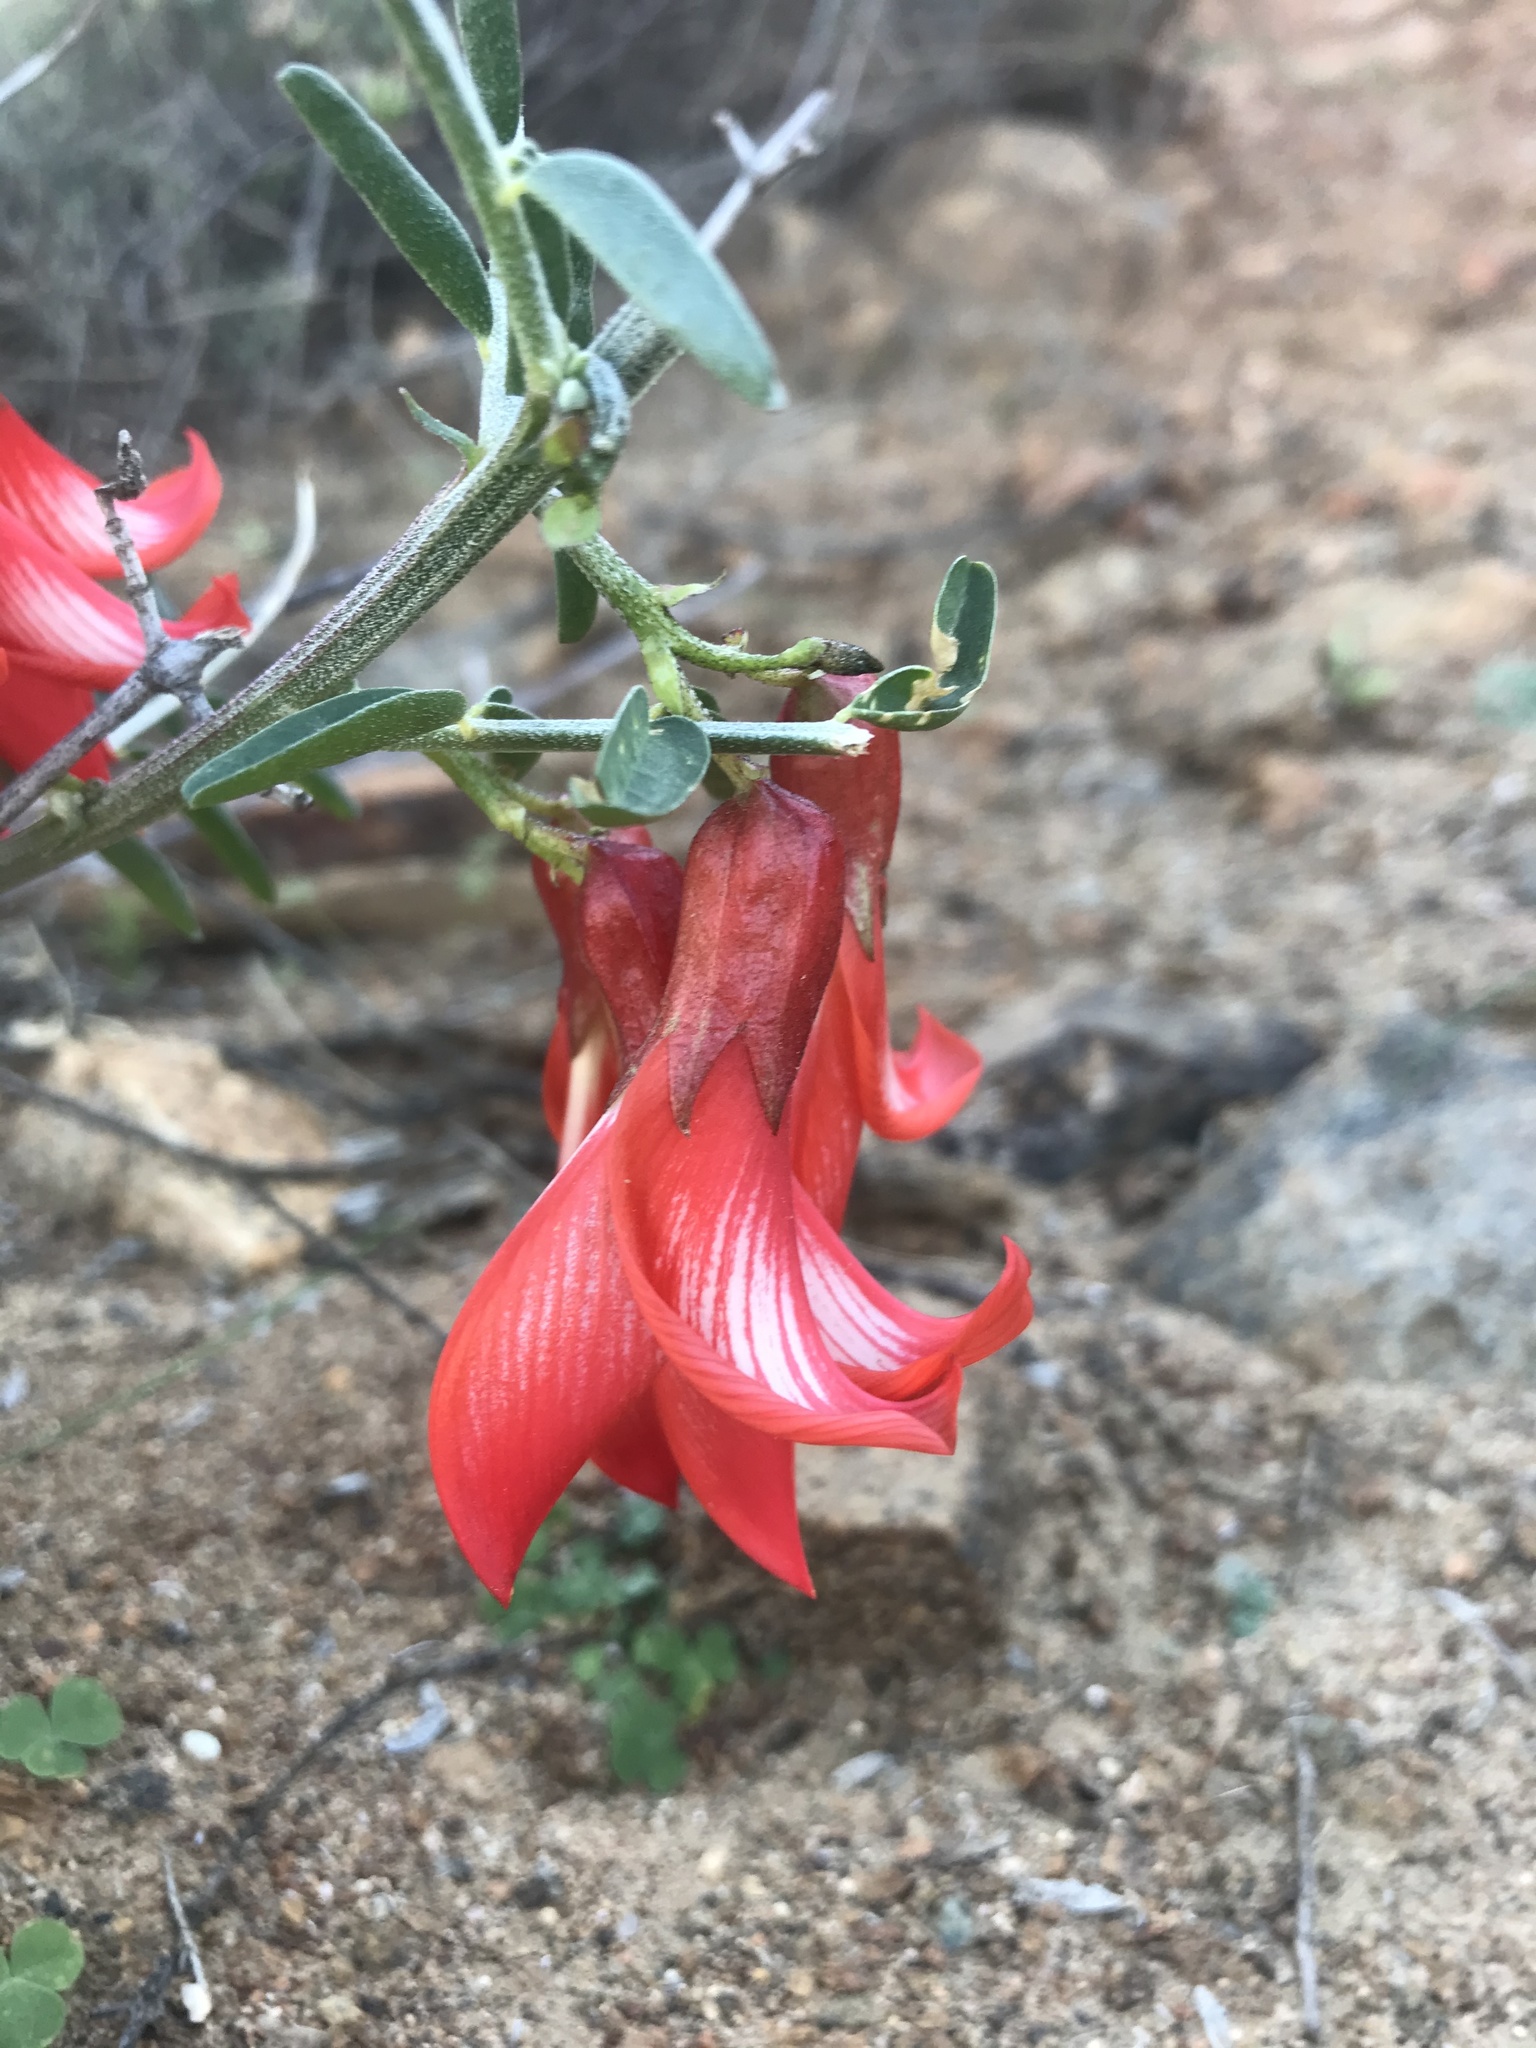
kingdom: Plantae
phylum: Tracheophyta
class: Magnoliopsida
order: Fabales
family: Fabaceae
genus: Lessertia
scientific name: Lessertia frutescens
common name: Balloon-pea
